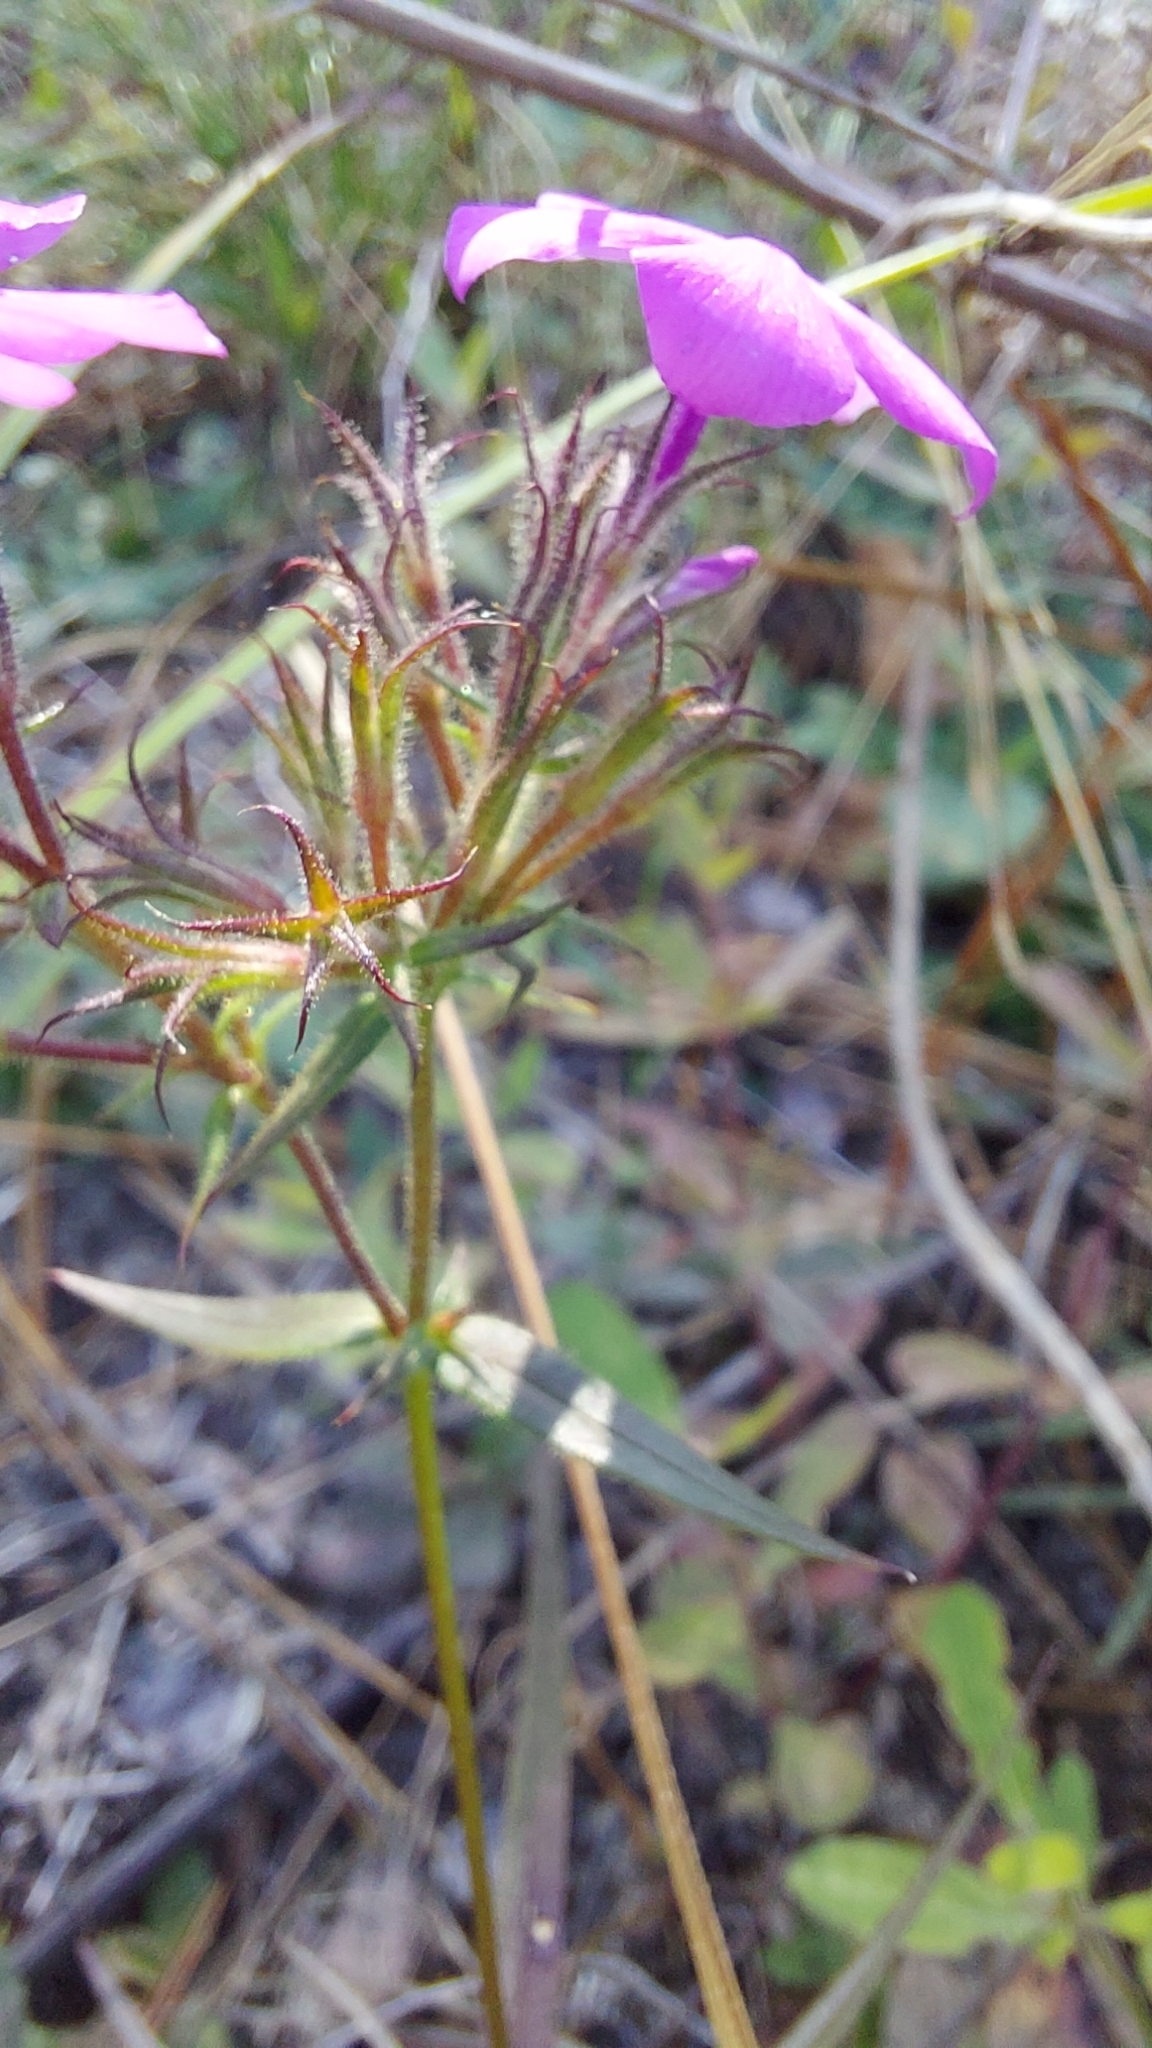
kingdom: Plantae
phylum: Tracheophyta
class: Magnoliopsida
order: Ericales
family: Polemoniaceae
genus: Phlox
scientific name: Phlox pilosa
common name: Prairie phlox
